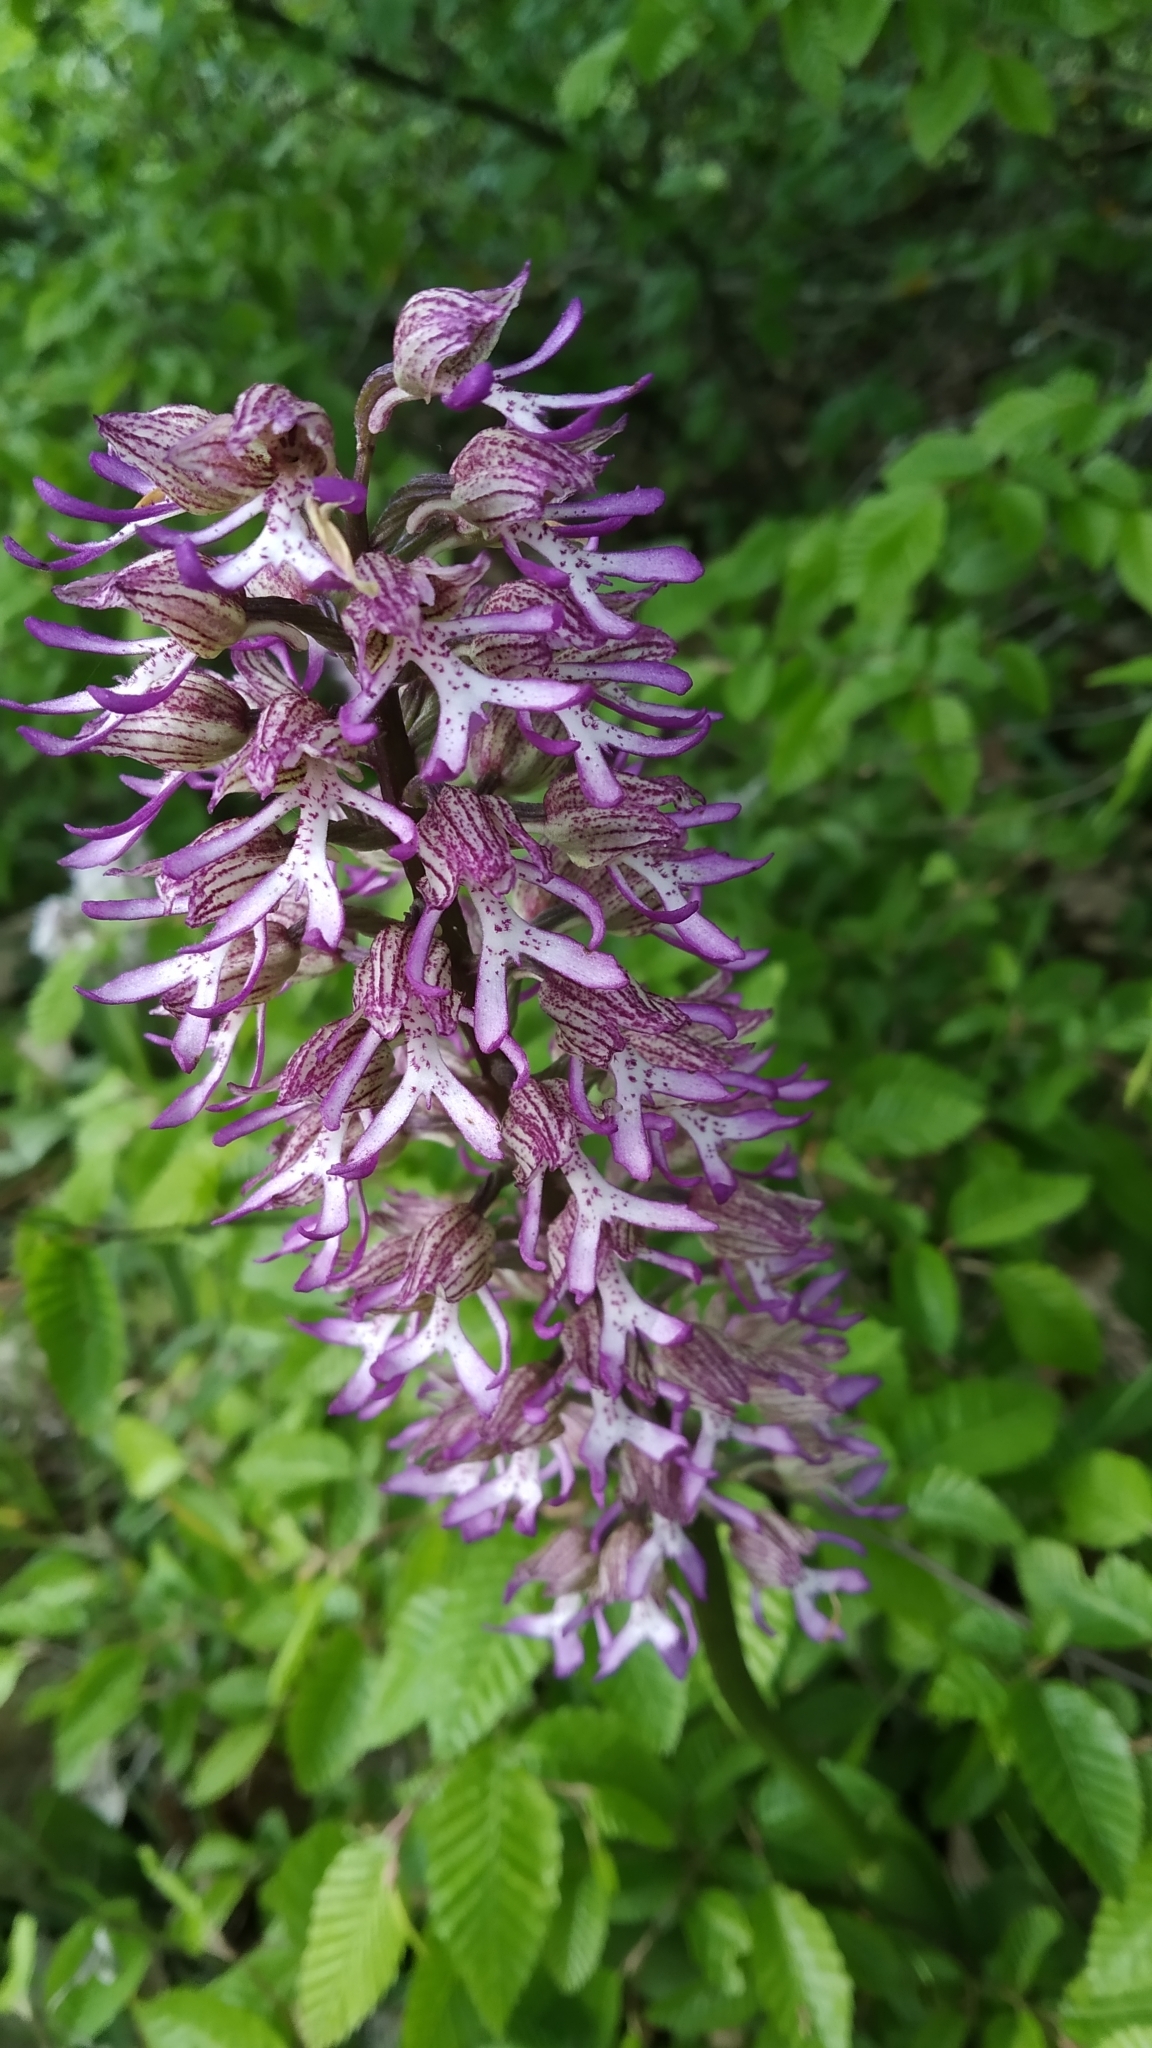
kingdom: Plantae
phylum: Tracheophyta
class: Liliopsida
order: Asparagales
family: Orchidaceae
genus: Orchis
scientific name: Orchis angusticruris
